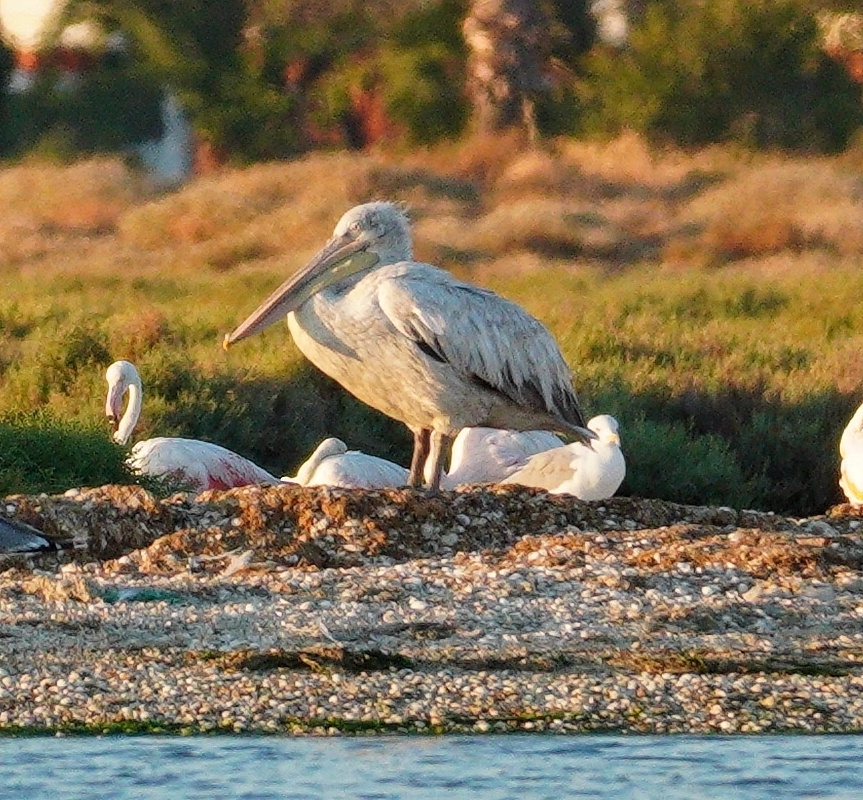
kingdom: Animalia
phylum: Chordata
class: Aves
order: Pelecaniformes
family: Pelecanidae
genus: Pelecanus
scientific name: Pelecanus crispus
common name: Dalmatian pelican
